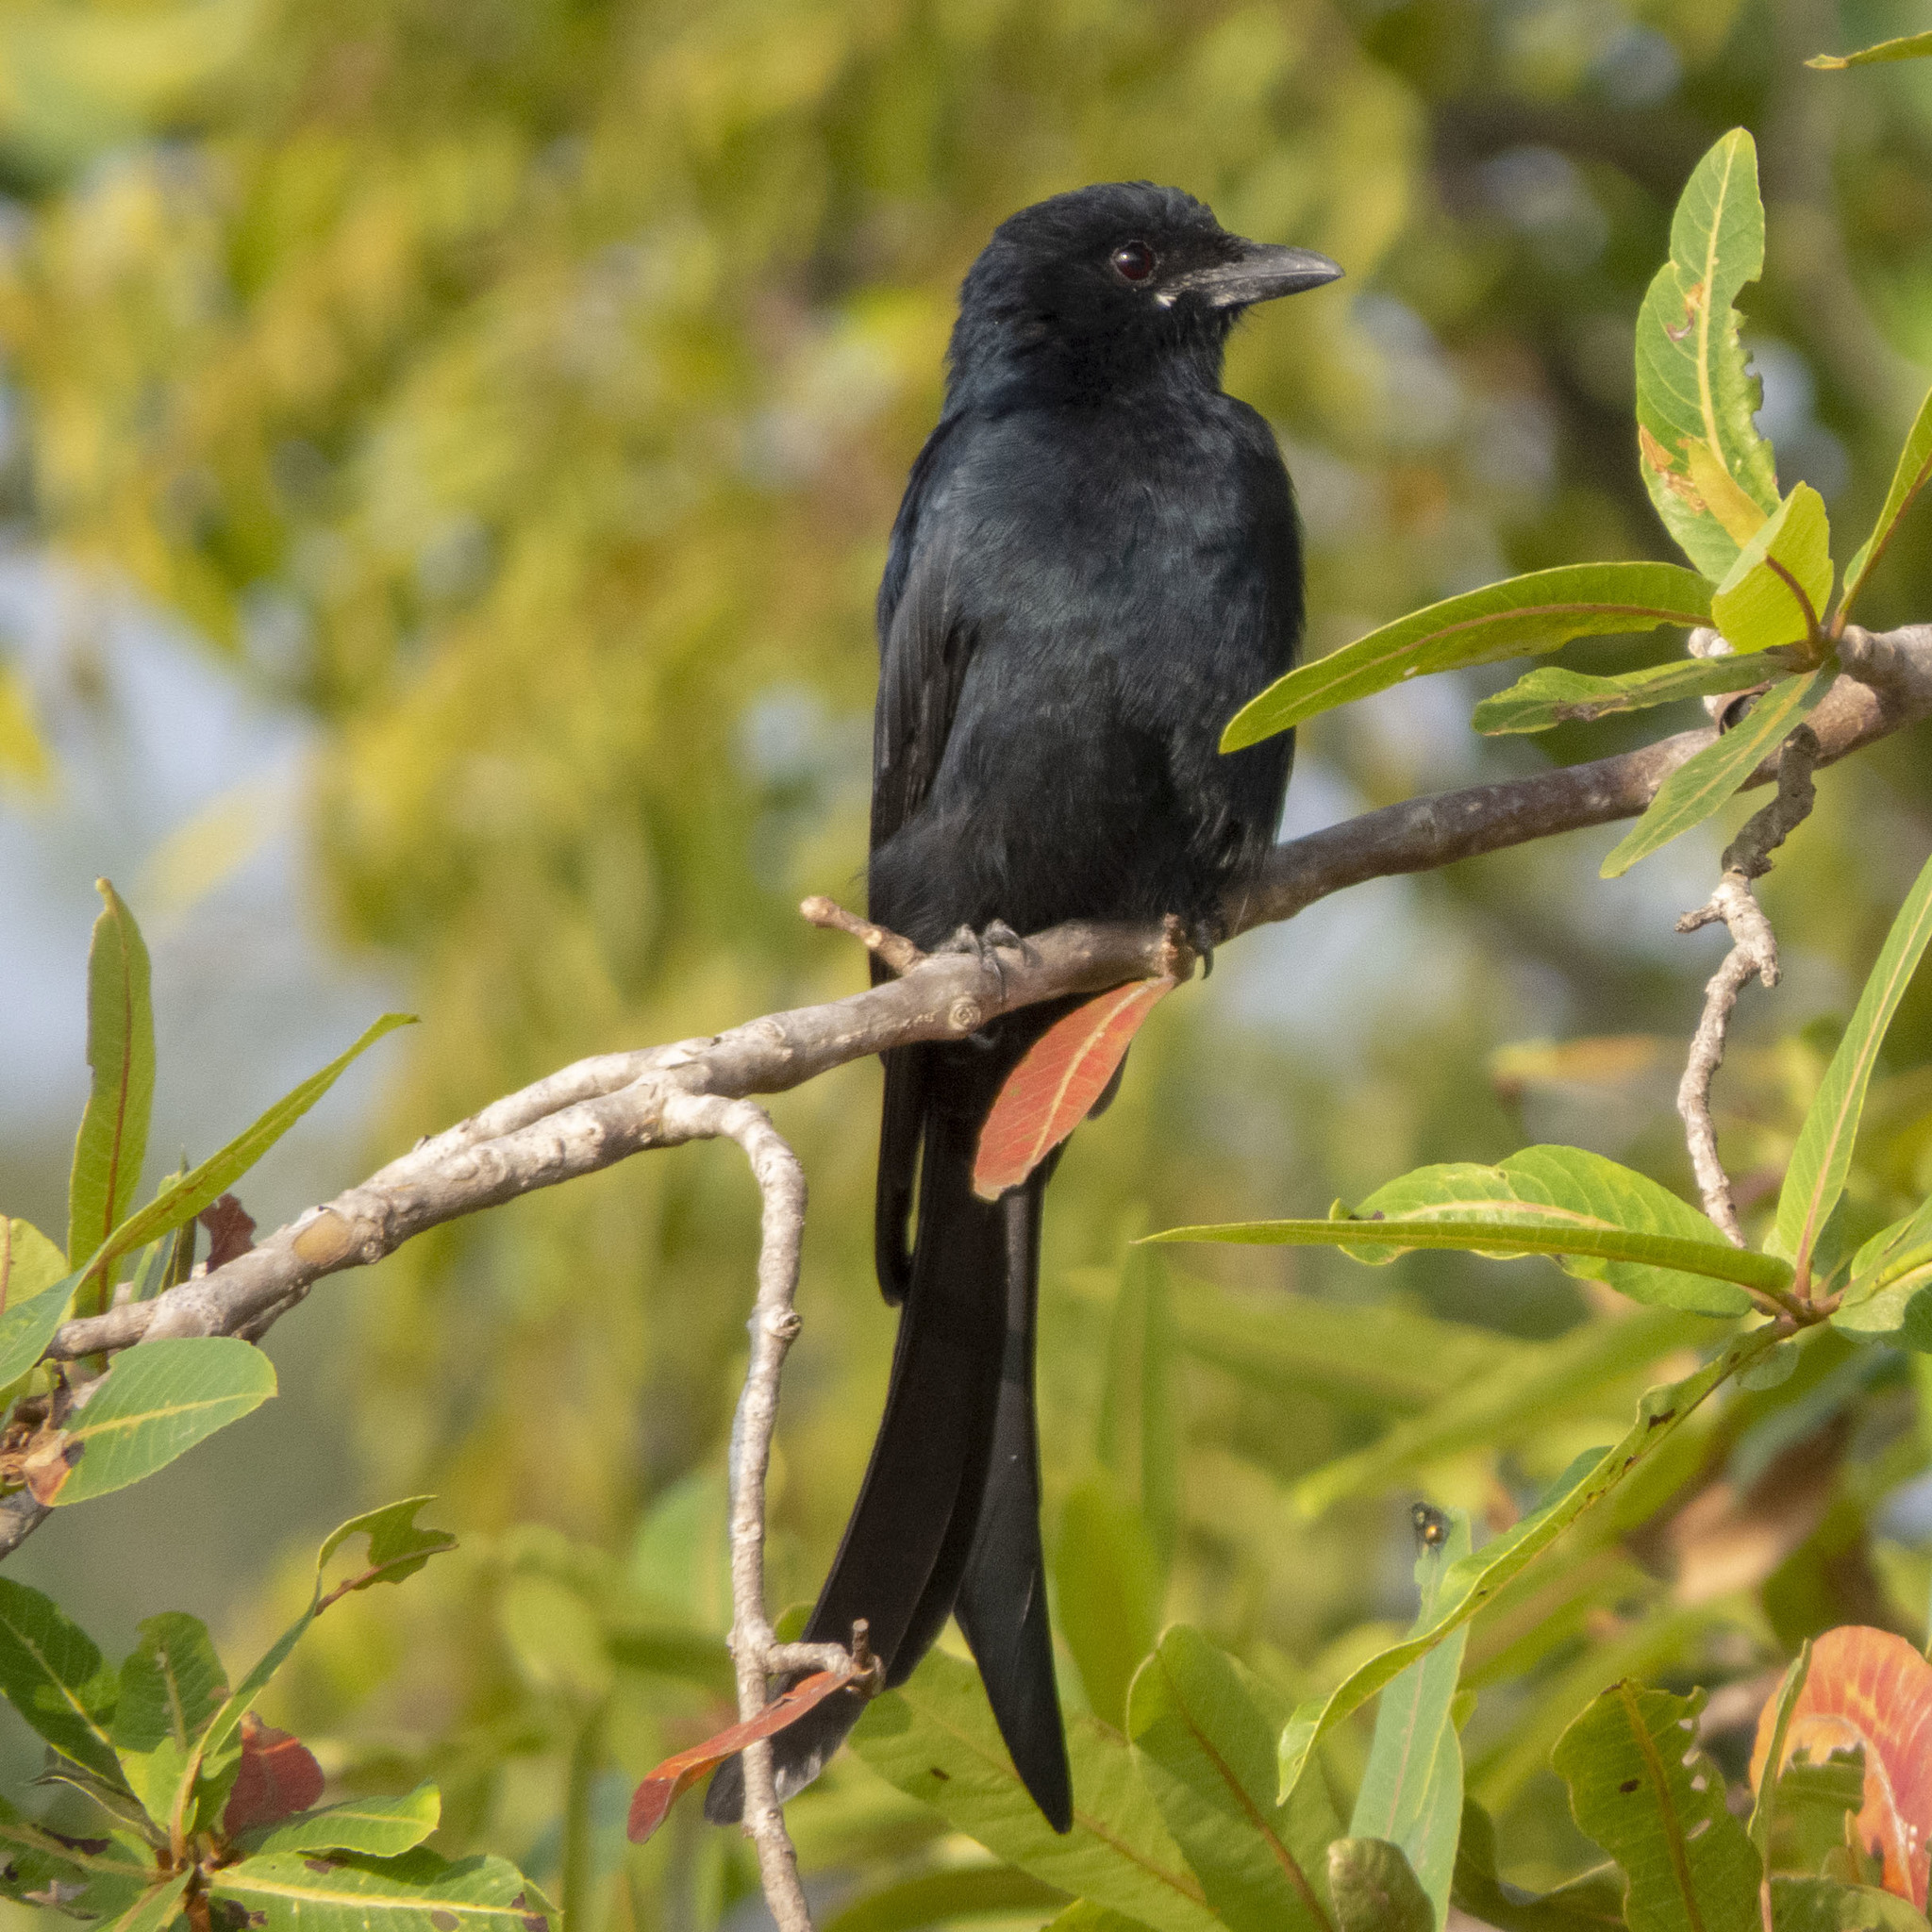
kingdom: Animalia
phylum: Chordata
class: Aves
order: Passeriformes
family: Dicruridae
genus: Dicrurus
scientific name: Dicrurus macrocercus
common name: Black drongo
